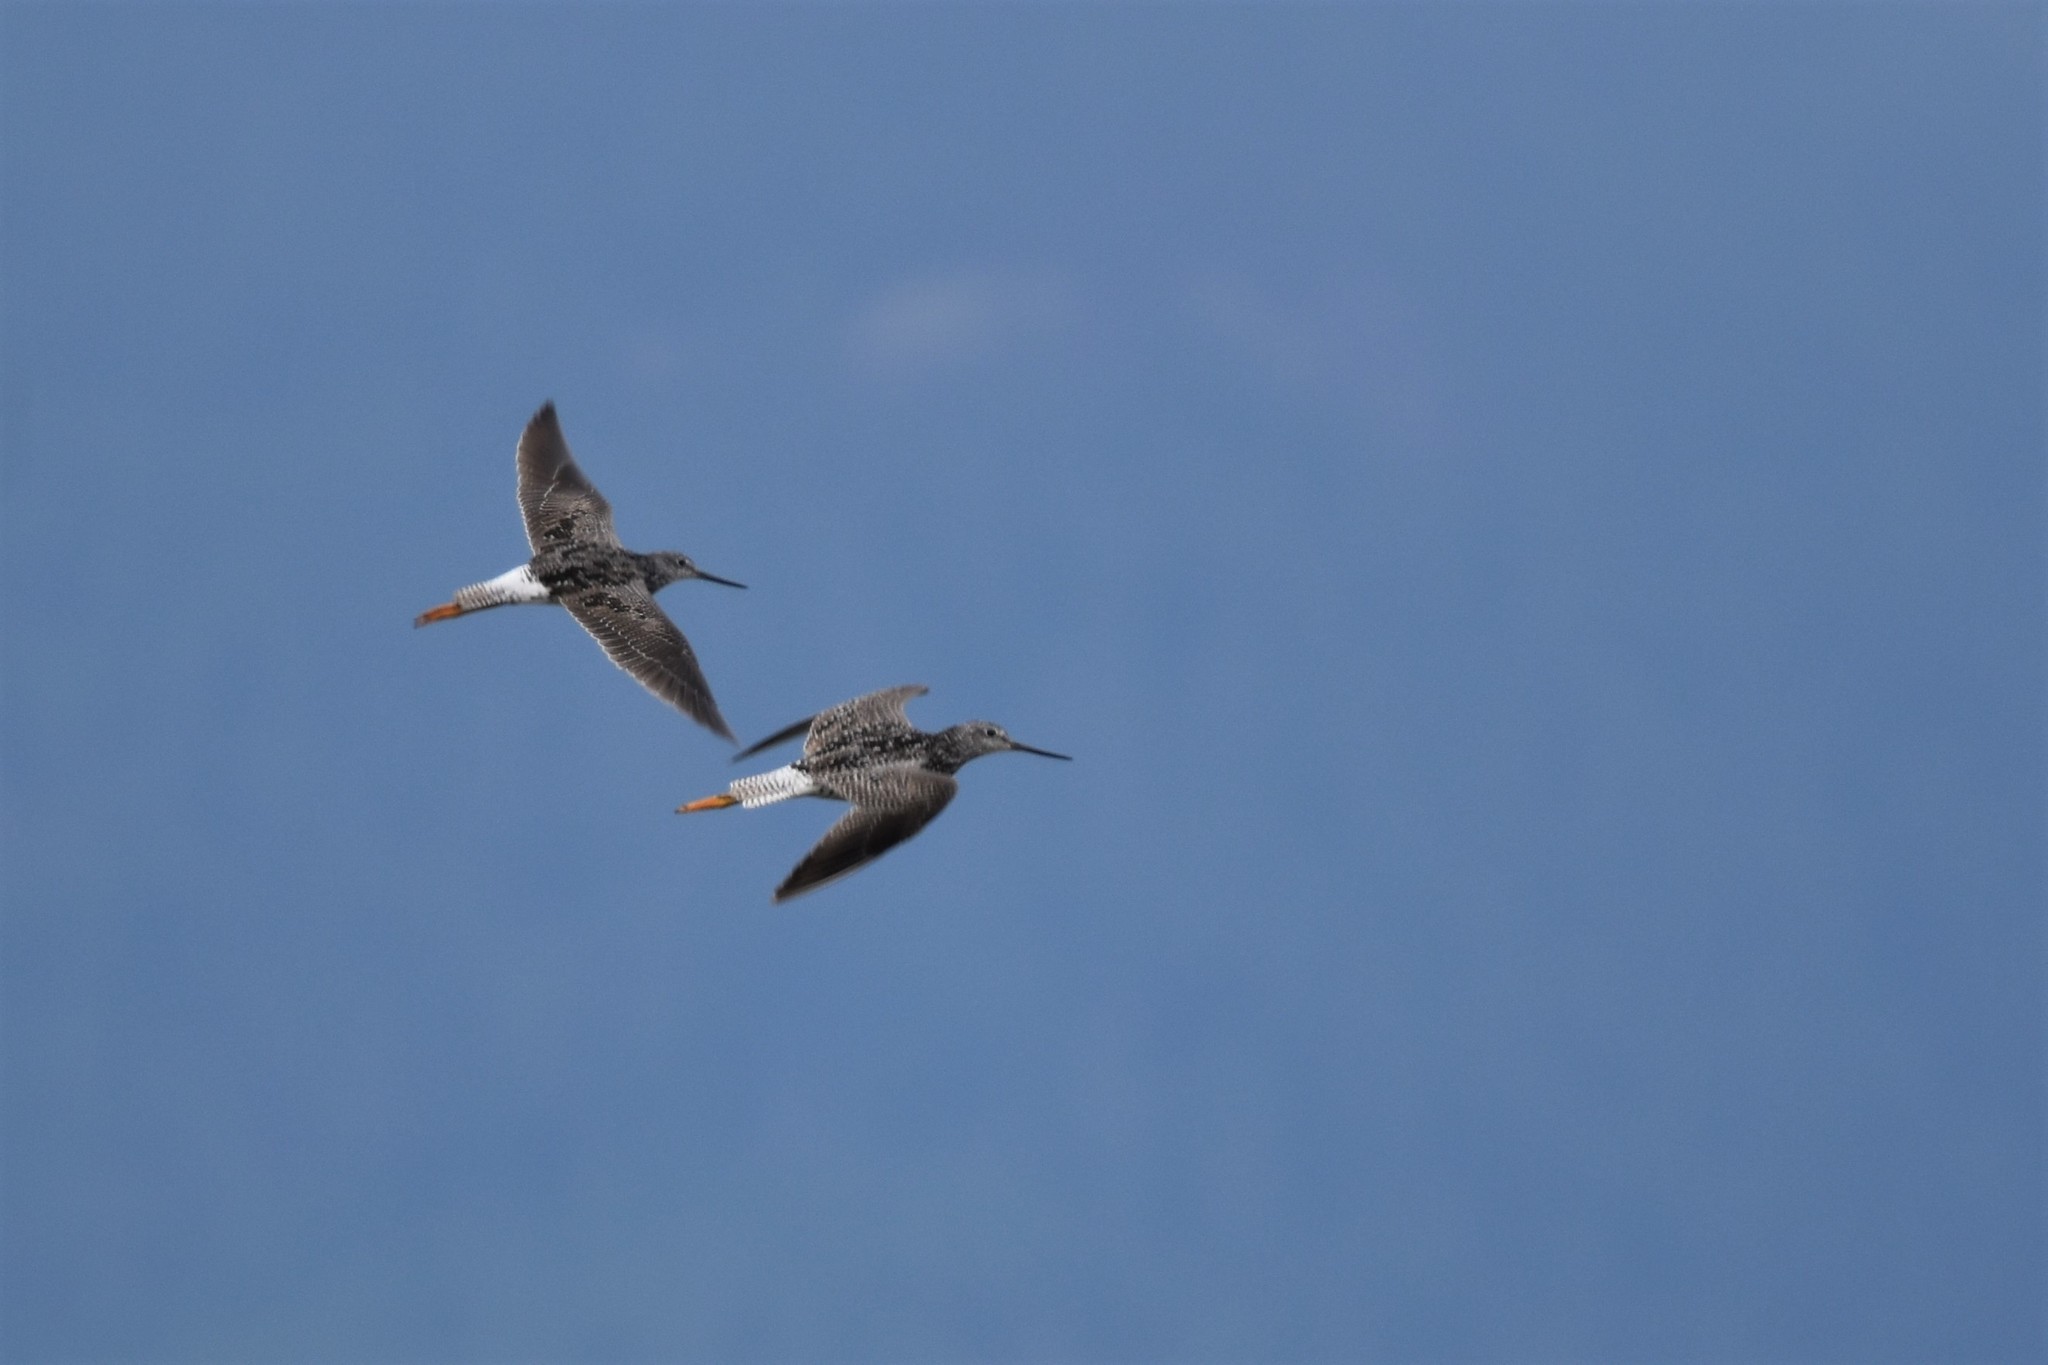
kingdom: Animalia
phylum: Chordata
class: Aves
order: Charadriiformes
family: Scolopacidae
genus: Tringa
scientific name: Tringa melanoleuca
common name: Greater yellowlegs
